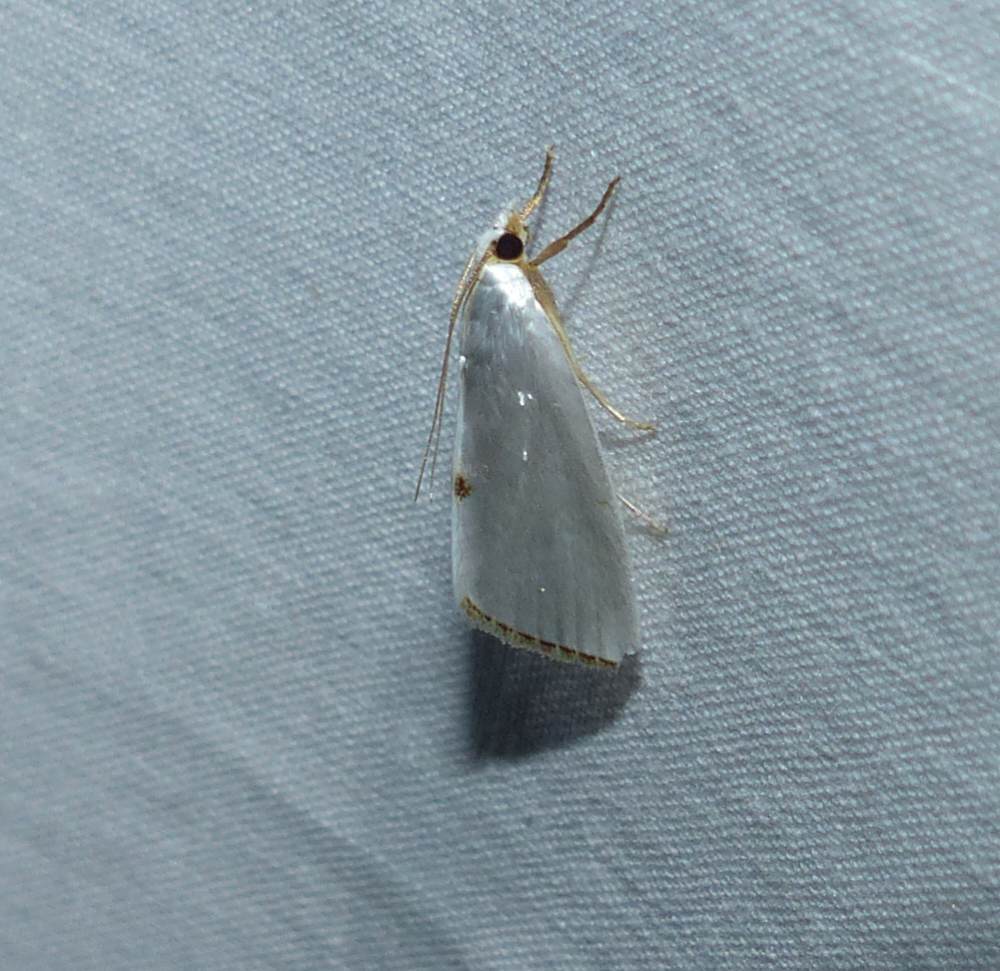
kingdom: Animalia
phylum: Arthropoda
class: Insecta
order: Lepidoptera
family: Crambidae
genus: Argyria
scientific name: Argyria nivalis
